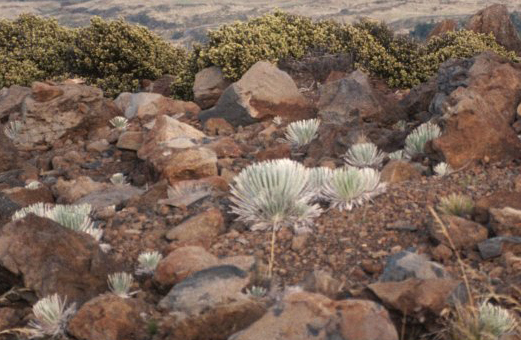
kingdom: Plantae
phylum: Tracheophyta
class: Magnoliopsida
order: Asterales
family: Asteraceae
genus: Argyroxiphium
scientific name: Argyroxiphium sandwicense
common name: Silversword
